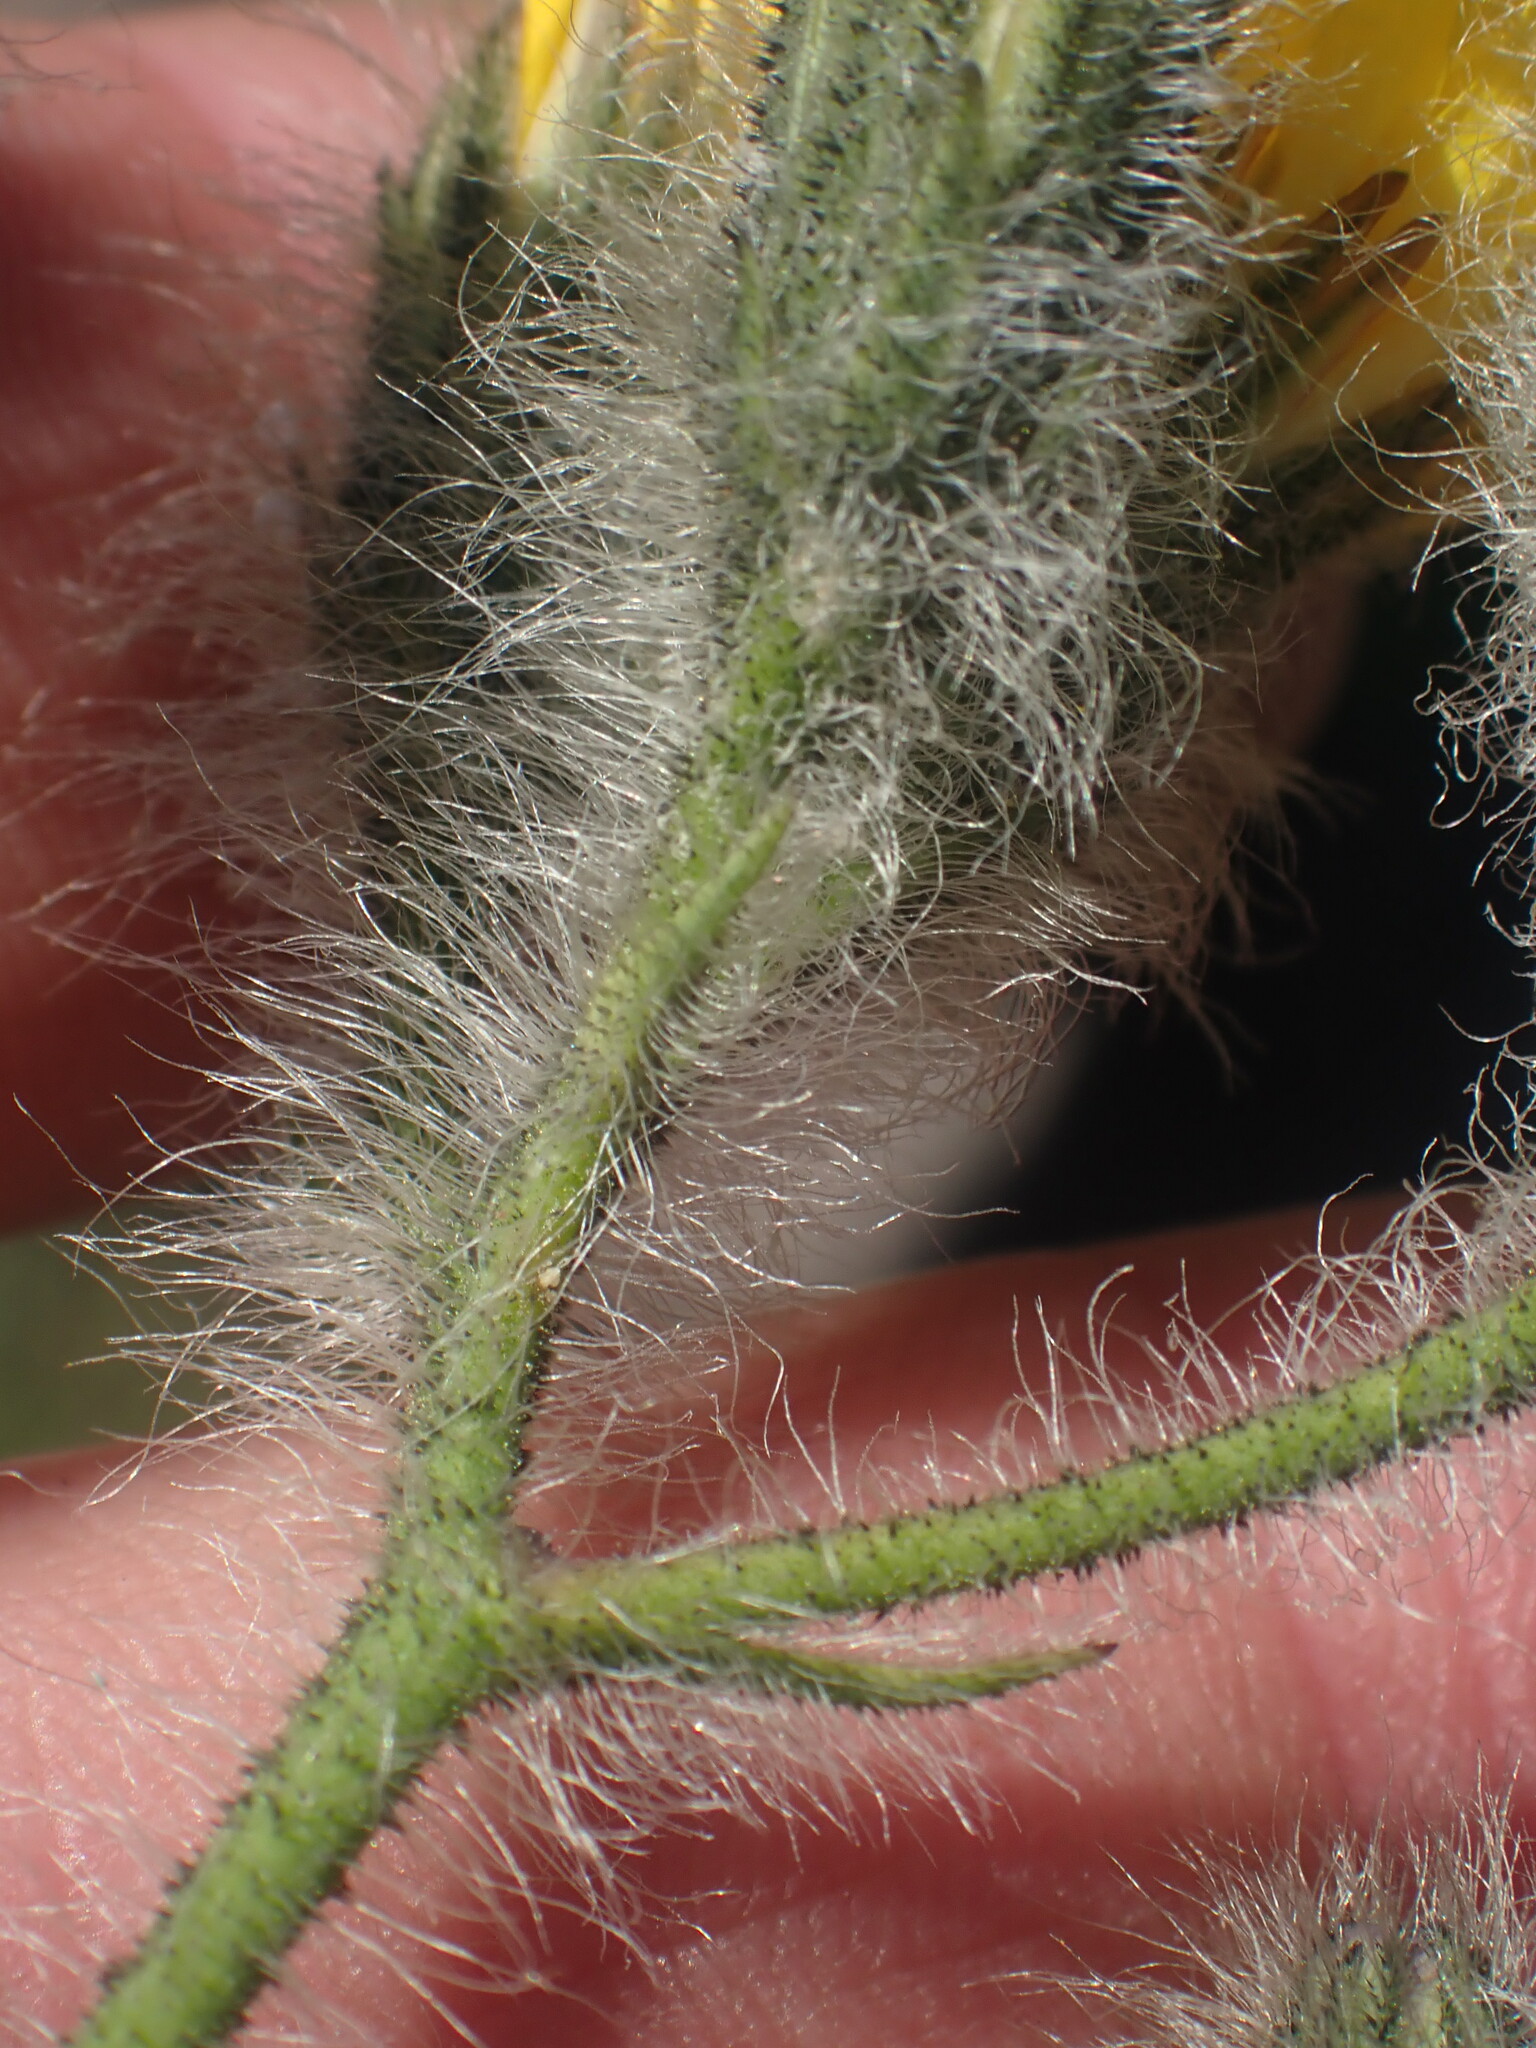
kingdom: Plantae
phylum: Tracheophyta
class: Magnoliopsida
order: Asterales
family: Asteraceae
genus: Hieracium
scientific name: Hieracium scouleri
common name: Hound's-tongue hawkweed
